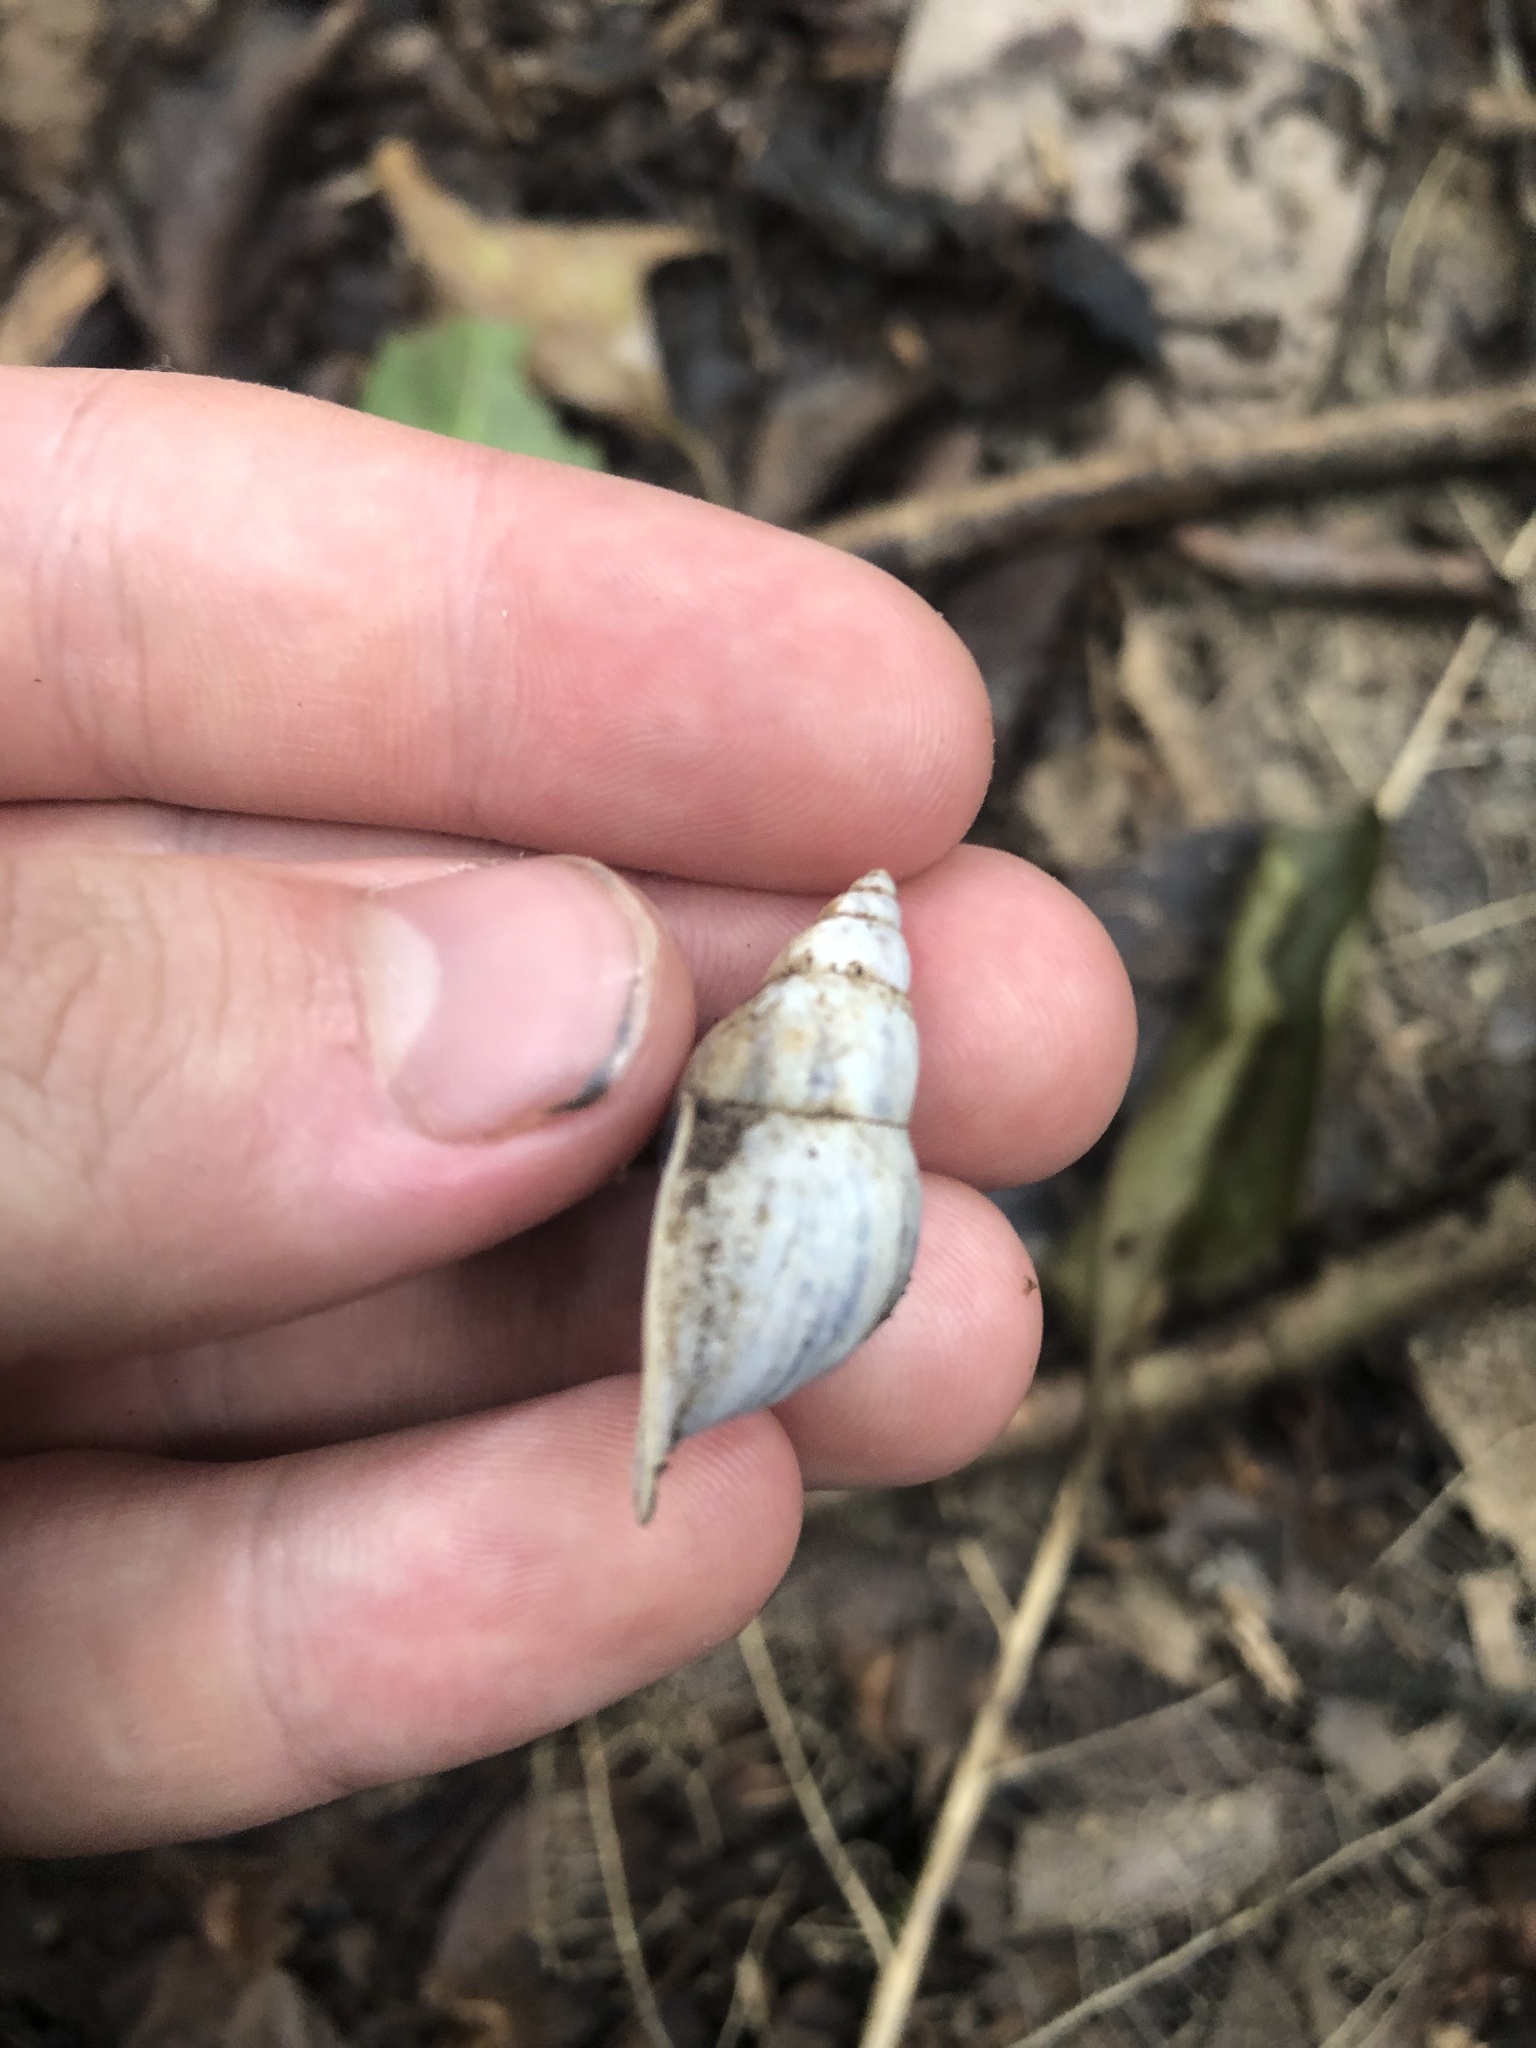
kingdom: Animalia
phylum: Mollusca
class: Gastropoda
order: Stylommatophora
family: Bulimulidae
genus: Drymaeus
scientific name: Drymaeus expansus
